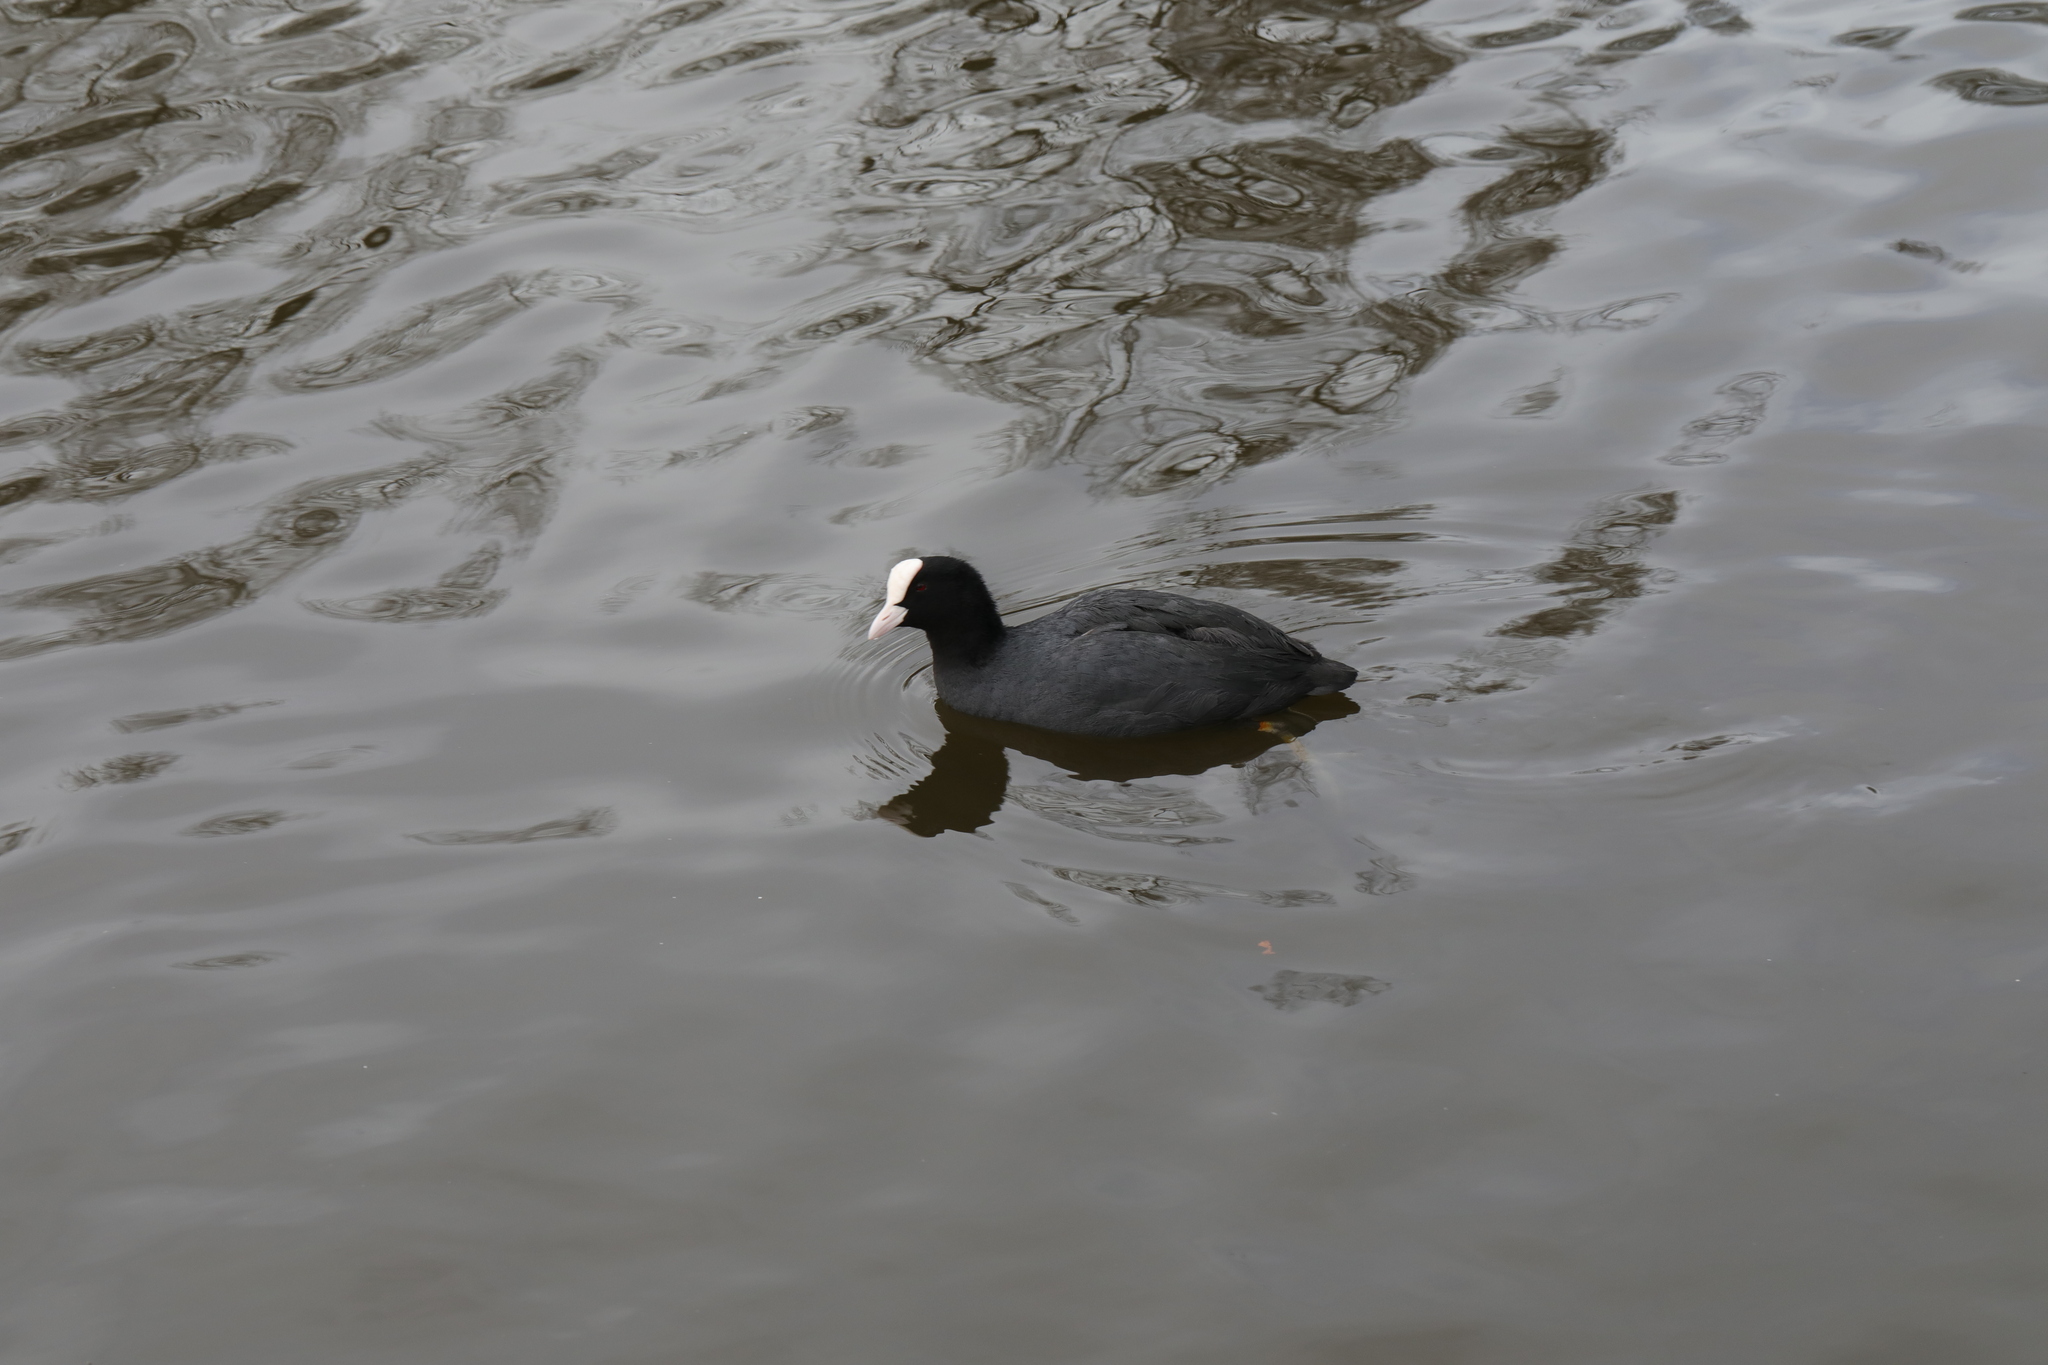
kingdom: Animalia
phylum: Chordata
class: Aves
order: Gruiformes
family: Rallidae
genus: Fulica
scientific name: Fulica atra
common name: Eurasian coot
